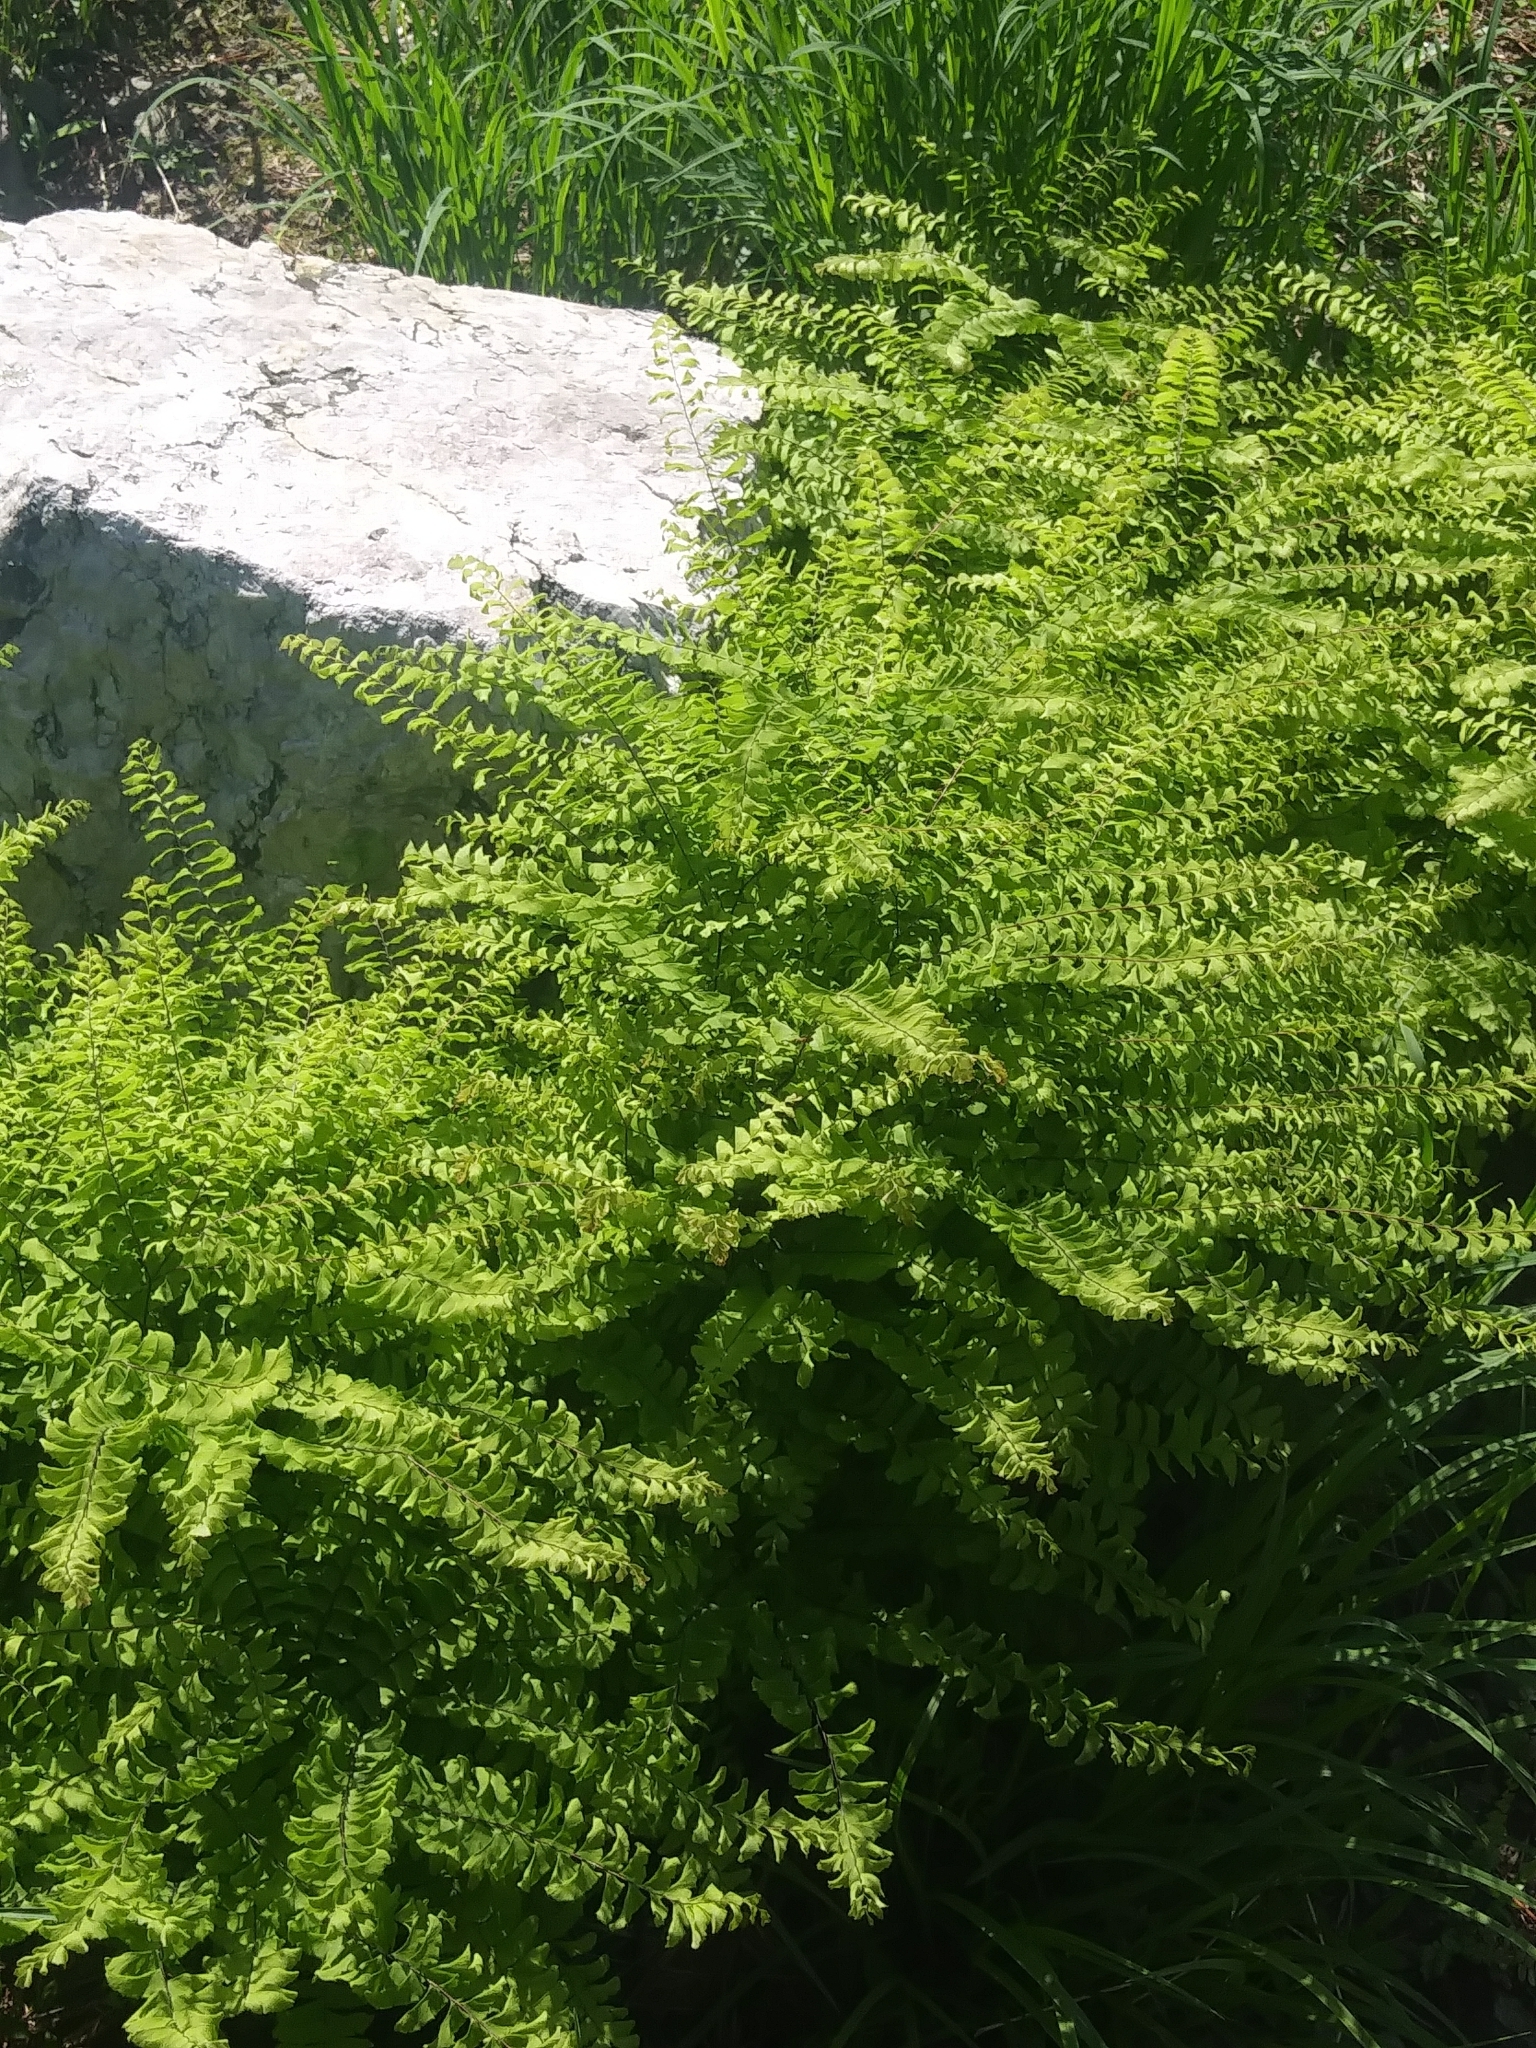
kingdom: Plantae
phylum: Tracheophyta
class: Polypodiopsida
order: Polypodiales
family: Pteridaceae
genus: Adiantum
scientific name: Adiantum pedatum
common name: Five-finger fern
